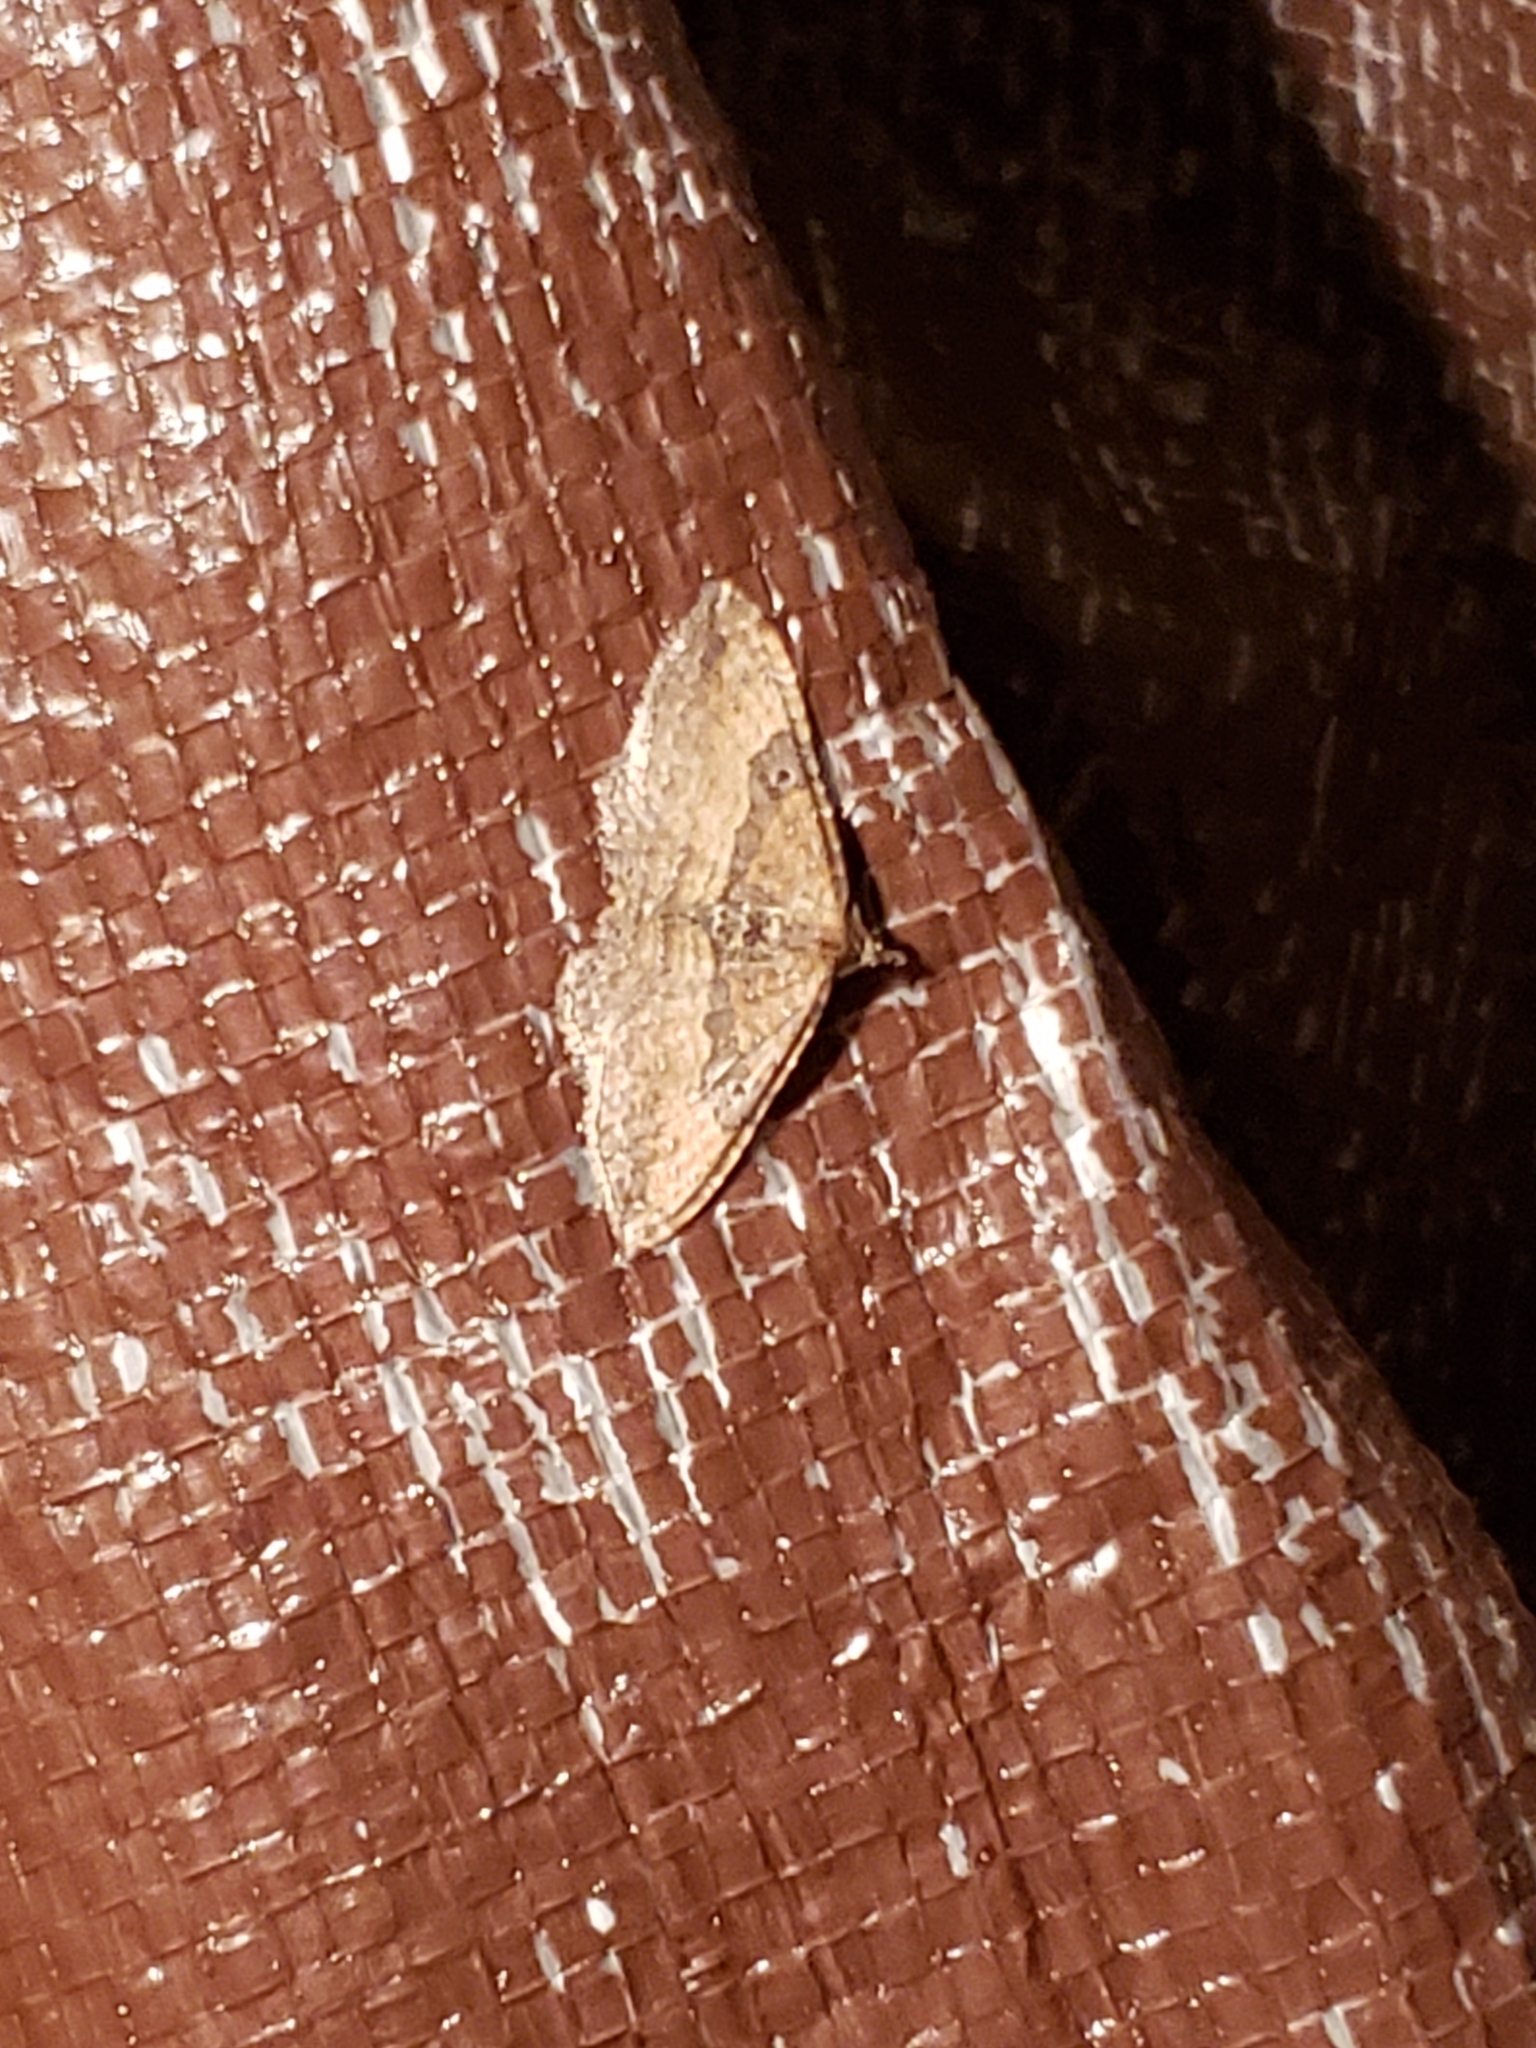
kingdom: Animalia
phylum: Arthropoda
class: Insecta
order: Lepidoptera
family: Geometridae
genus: Orthonama
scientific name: Orthonama obstipata
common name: The gem
